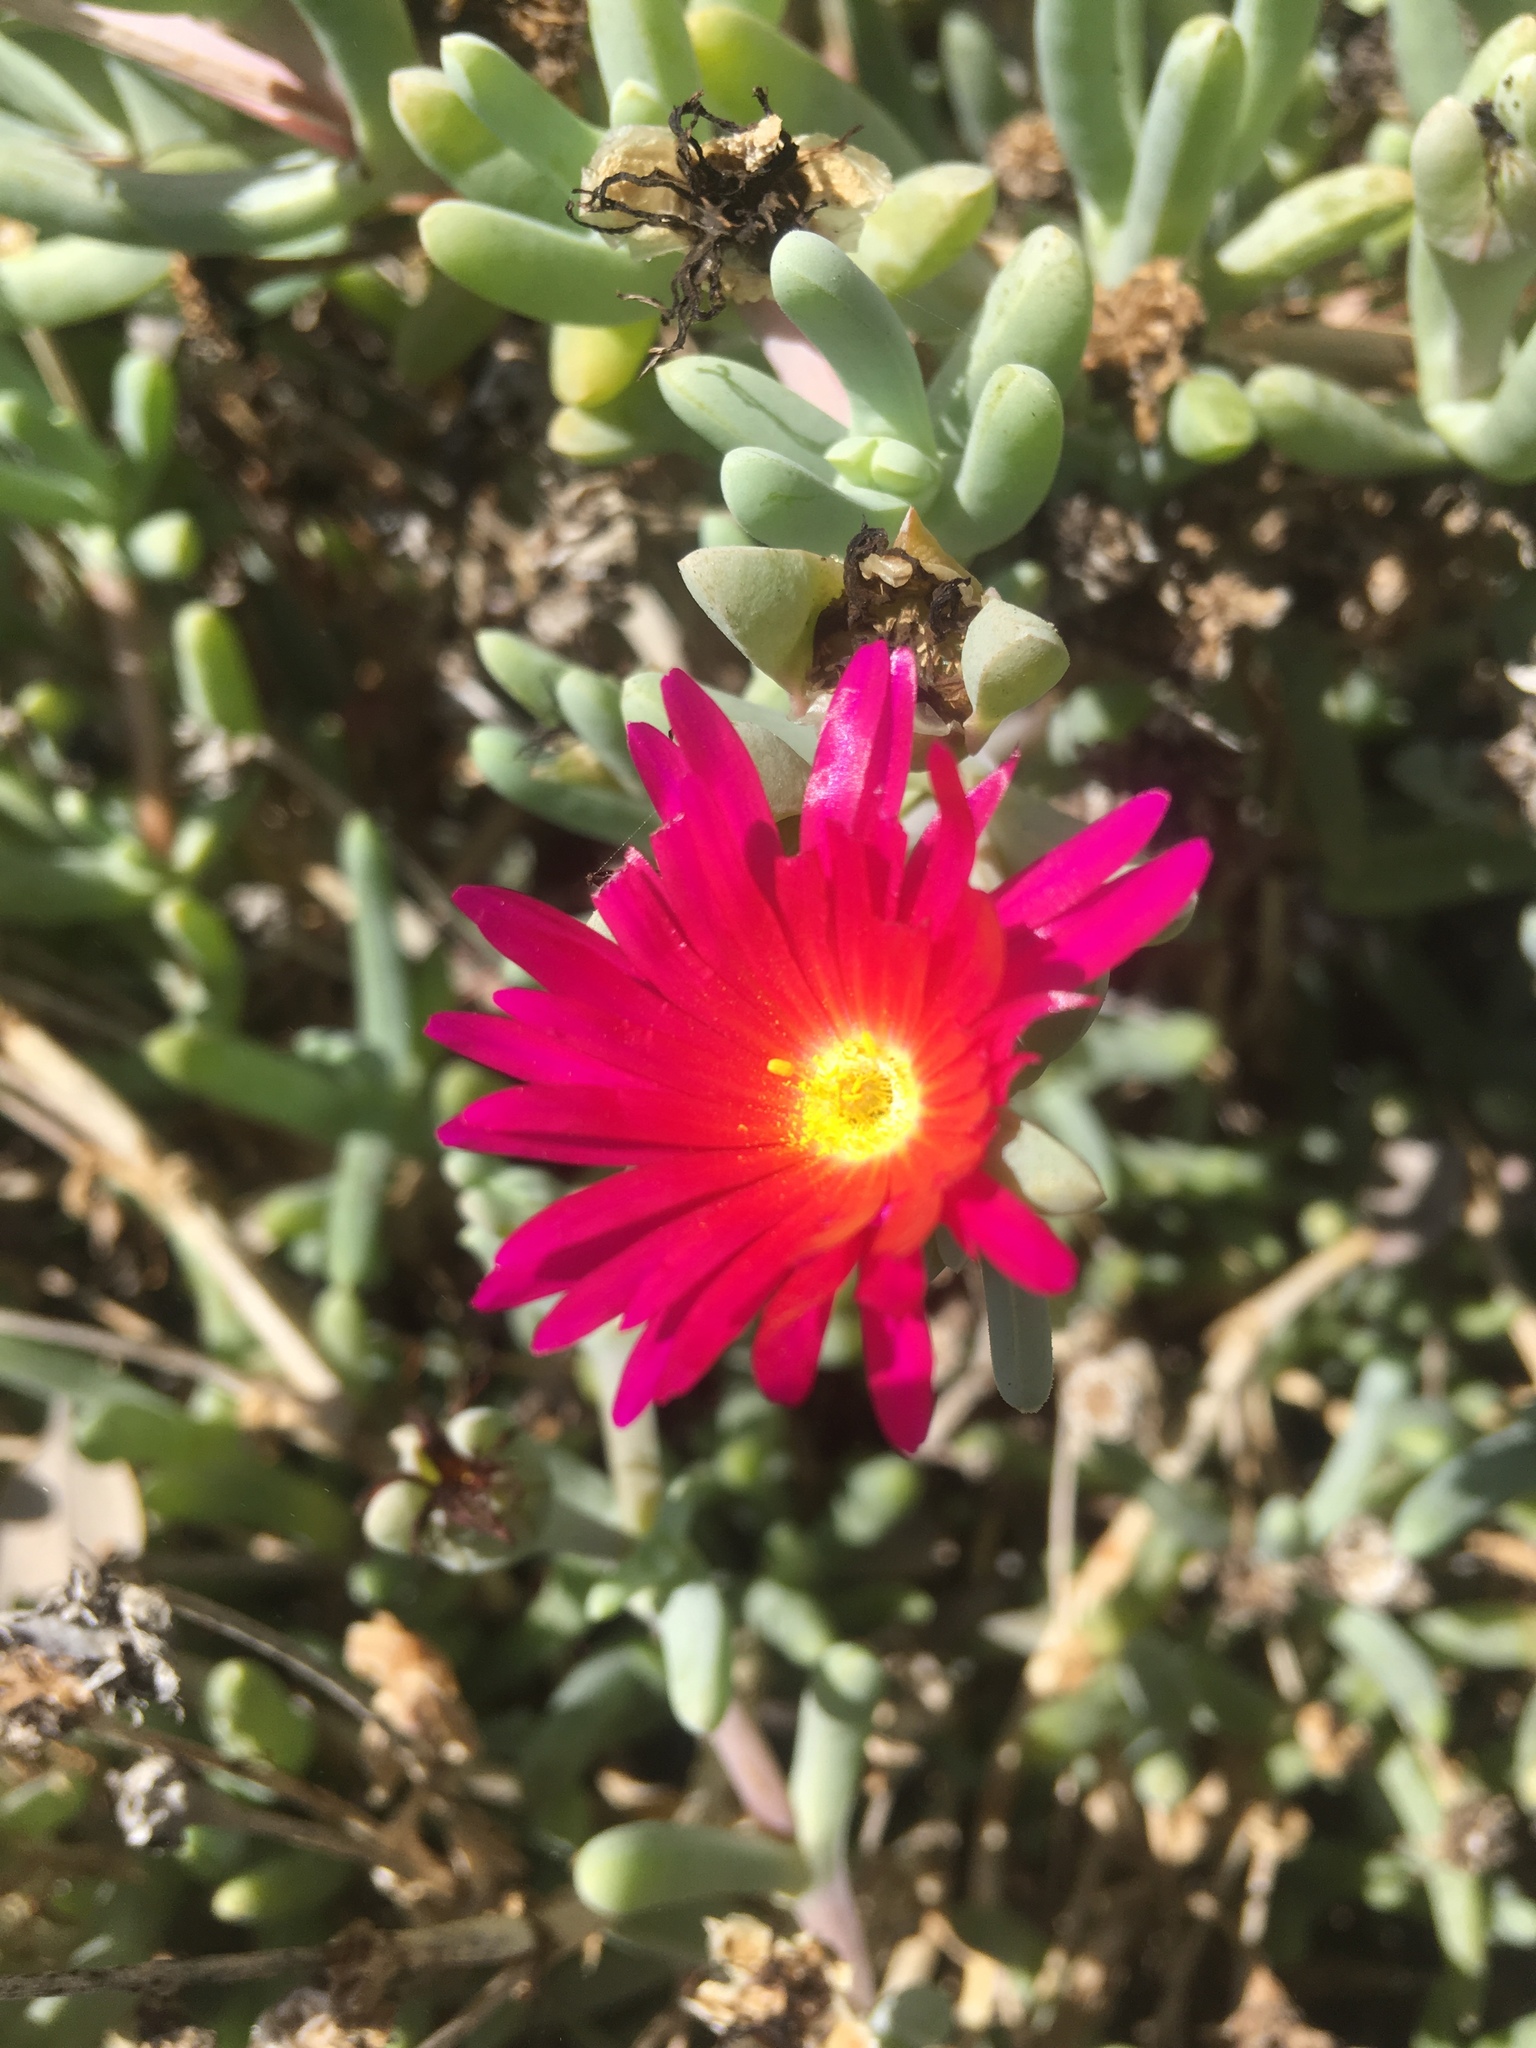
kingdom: Plantae
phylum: Tracheophyta
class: Magnoliopsida
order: Caryophyllales
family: Aizoaceae
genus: Malephora
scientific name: Malephora crocea
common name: Coppery mesemb
